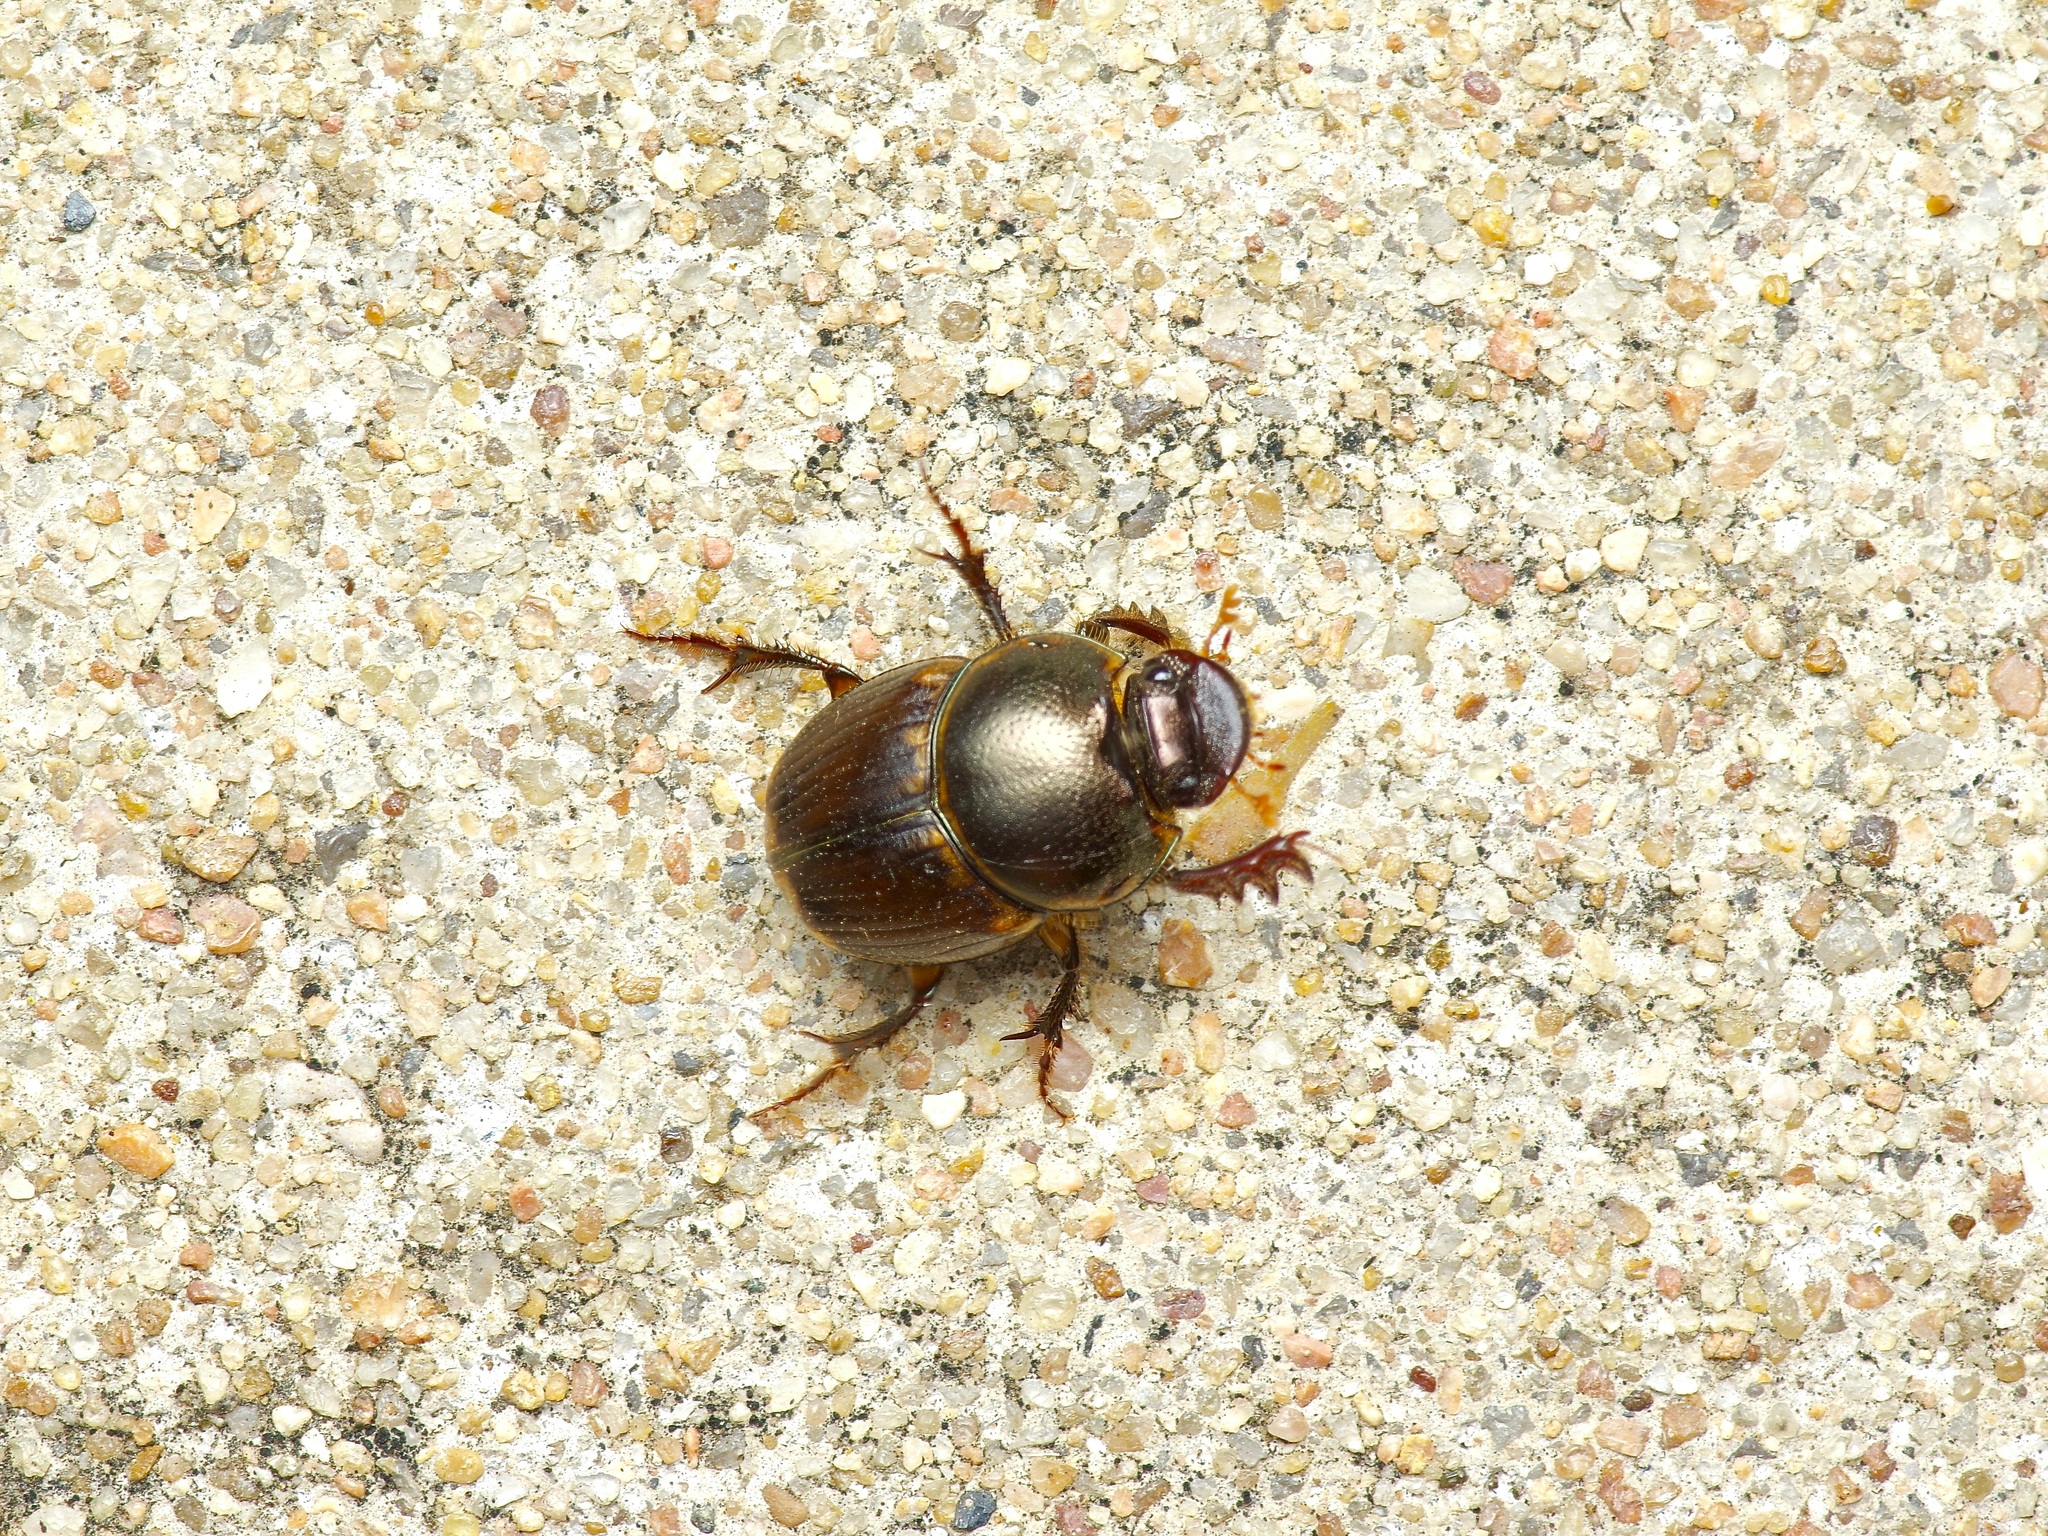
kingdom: Animalia
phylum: Arthropoda
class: Insecta
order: Coleoptera
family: Scarabaeidae
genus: Digitonthophagus
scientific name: Digitonthophagus gazella
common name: Brown dung beetle
